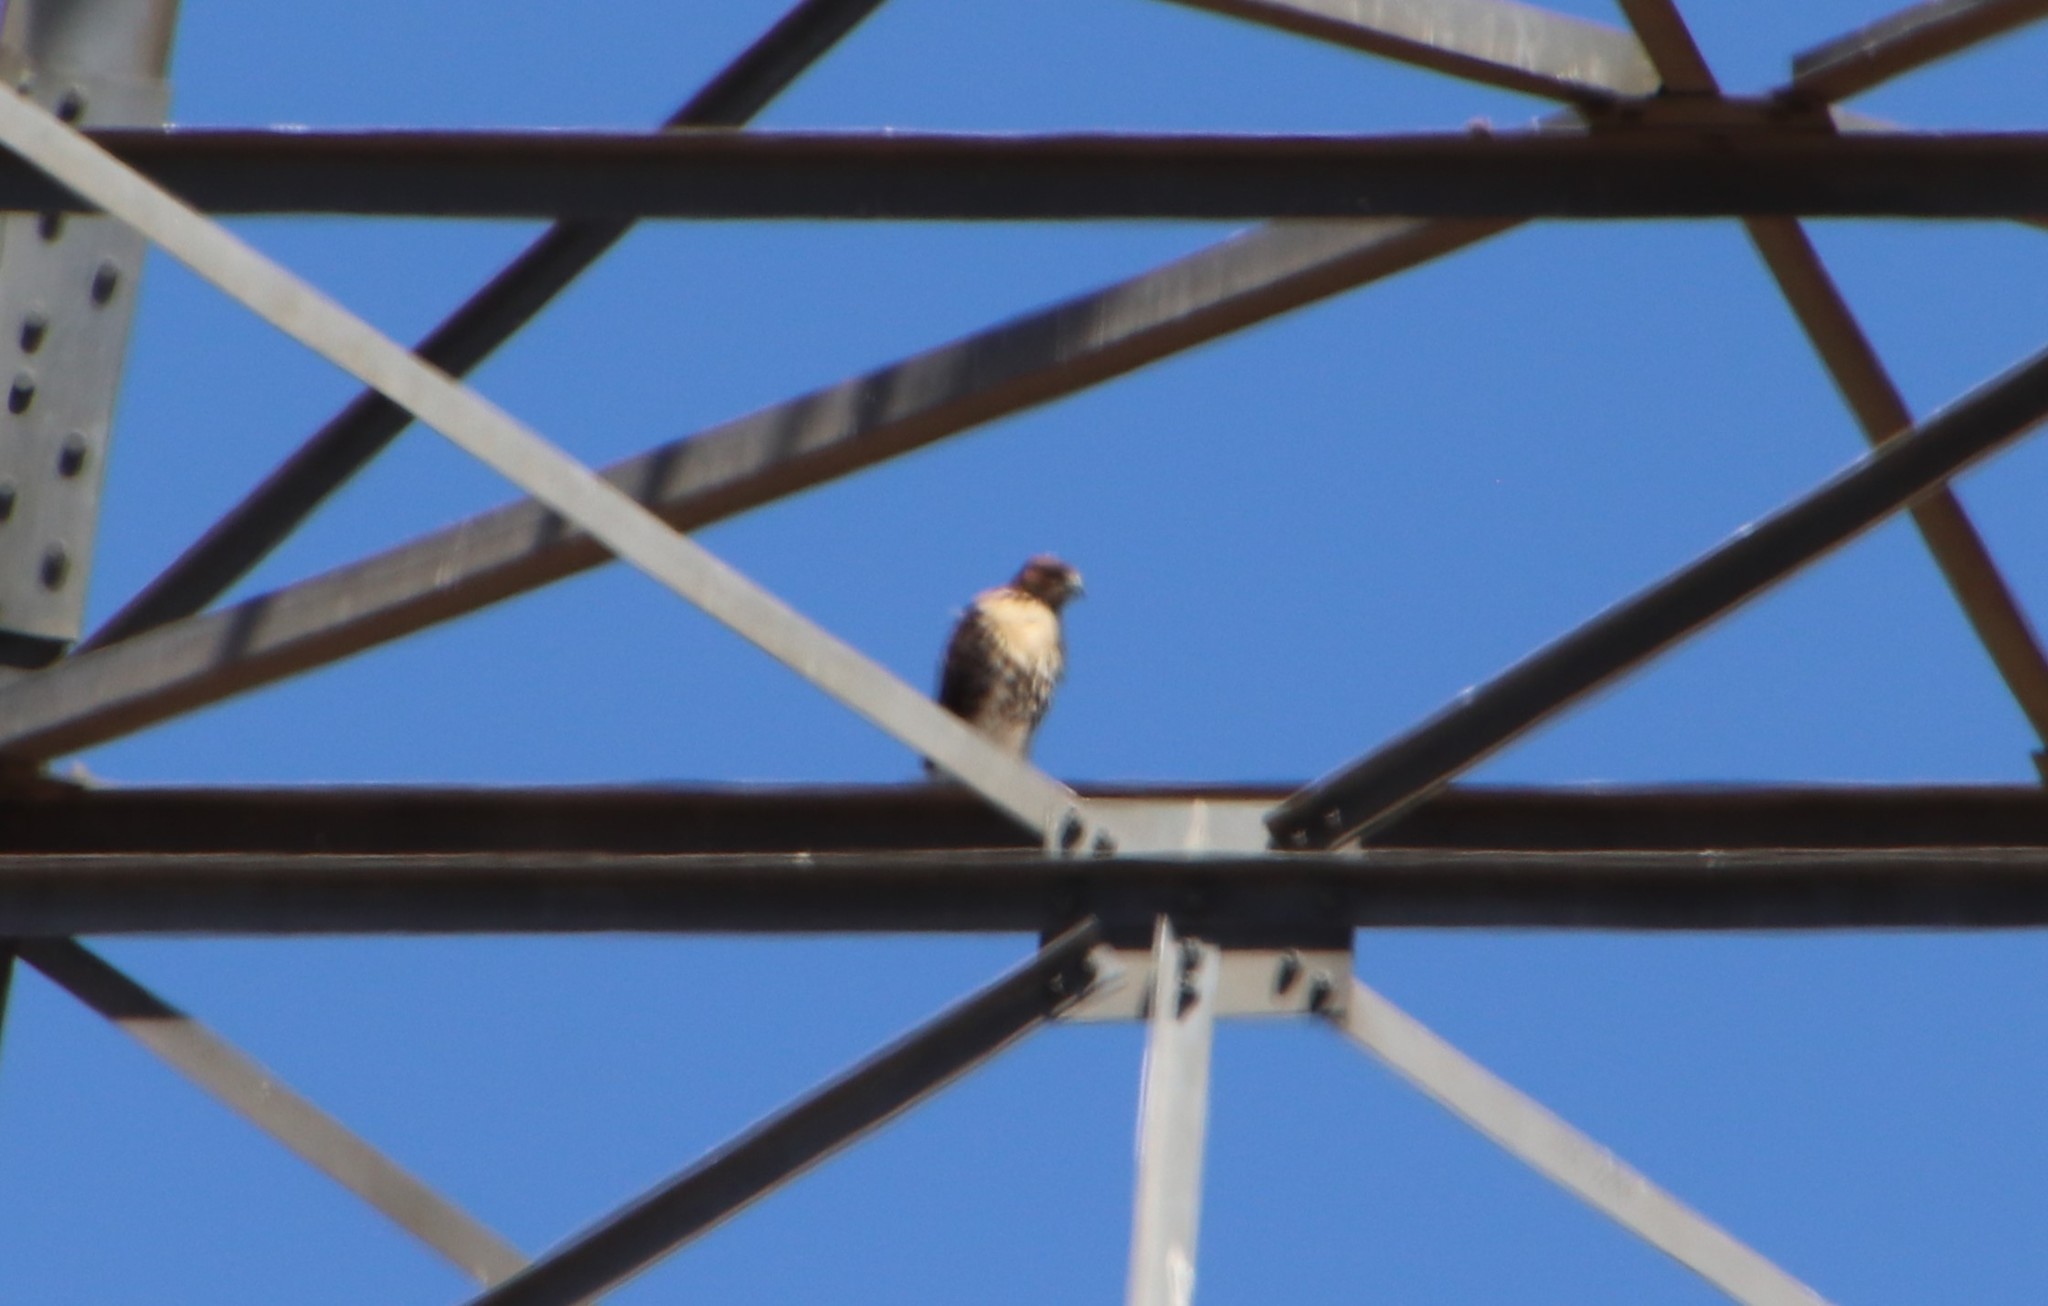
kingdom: Animalia
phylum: Chordata
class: Aves
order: Accipitriformes
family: Accipitridae
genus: Buteo
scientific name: Buteo jamaicensis
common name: Red-tailed hawk
